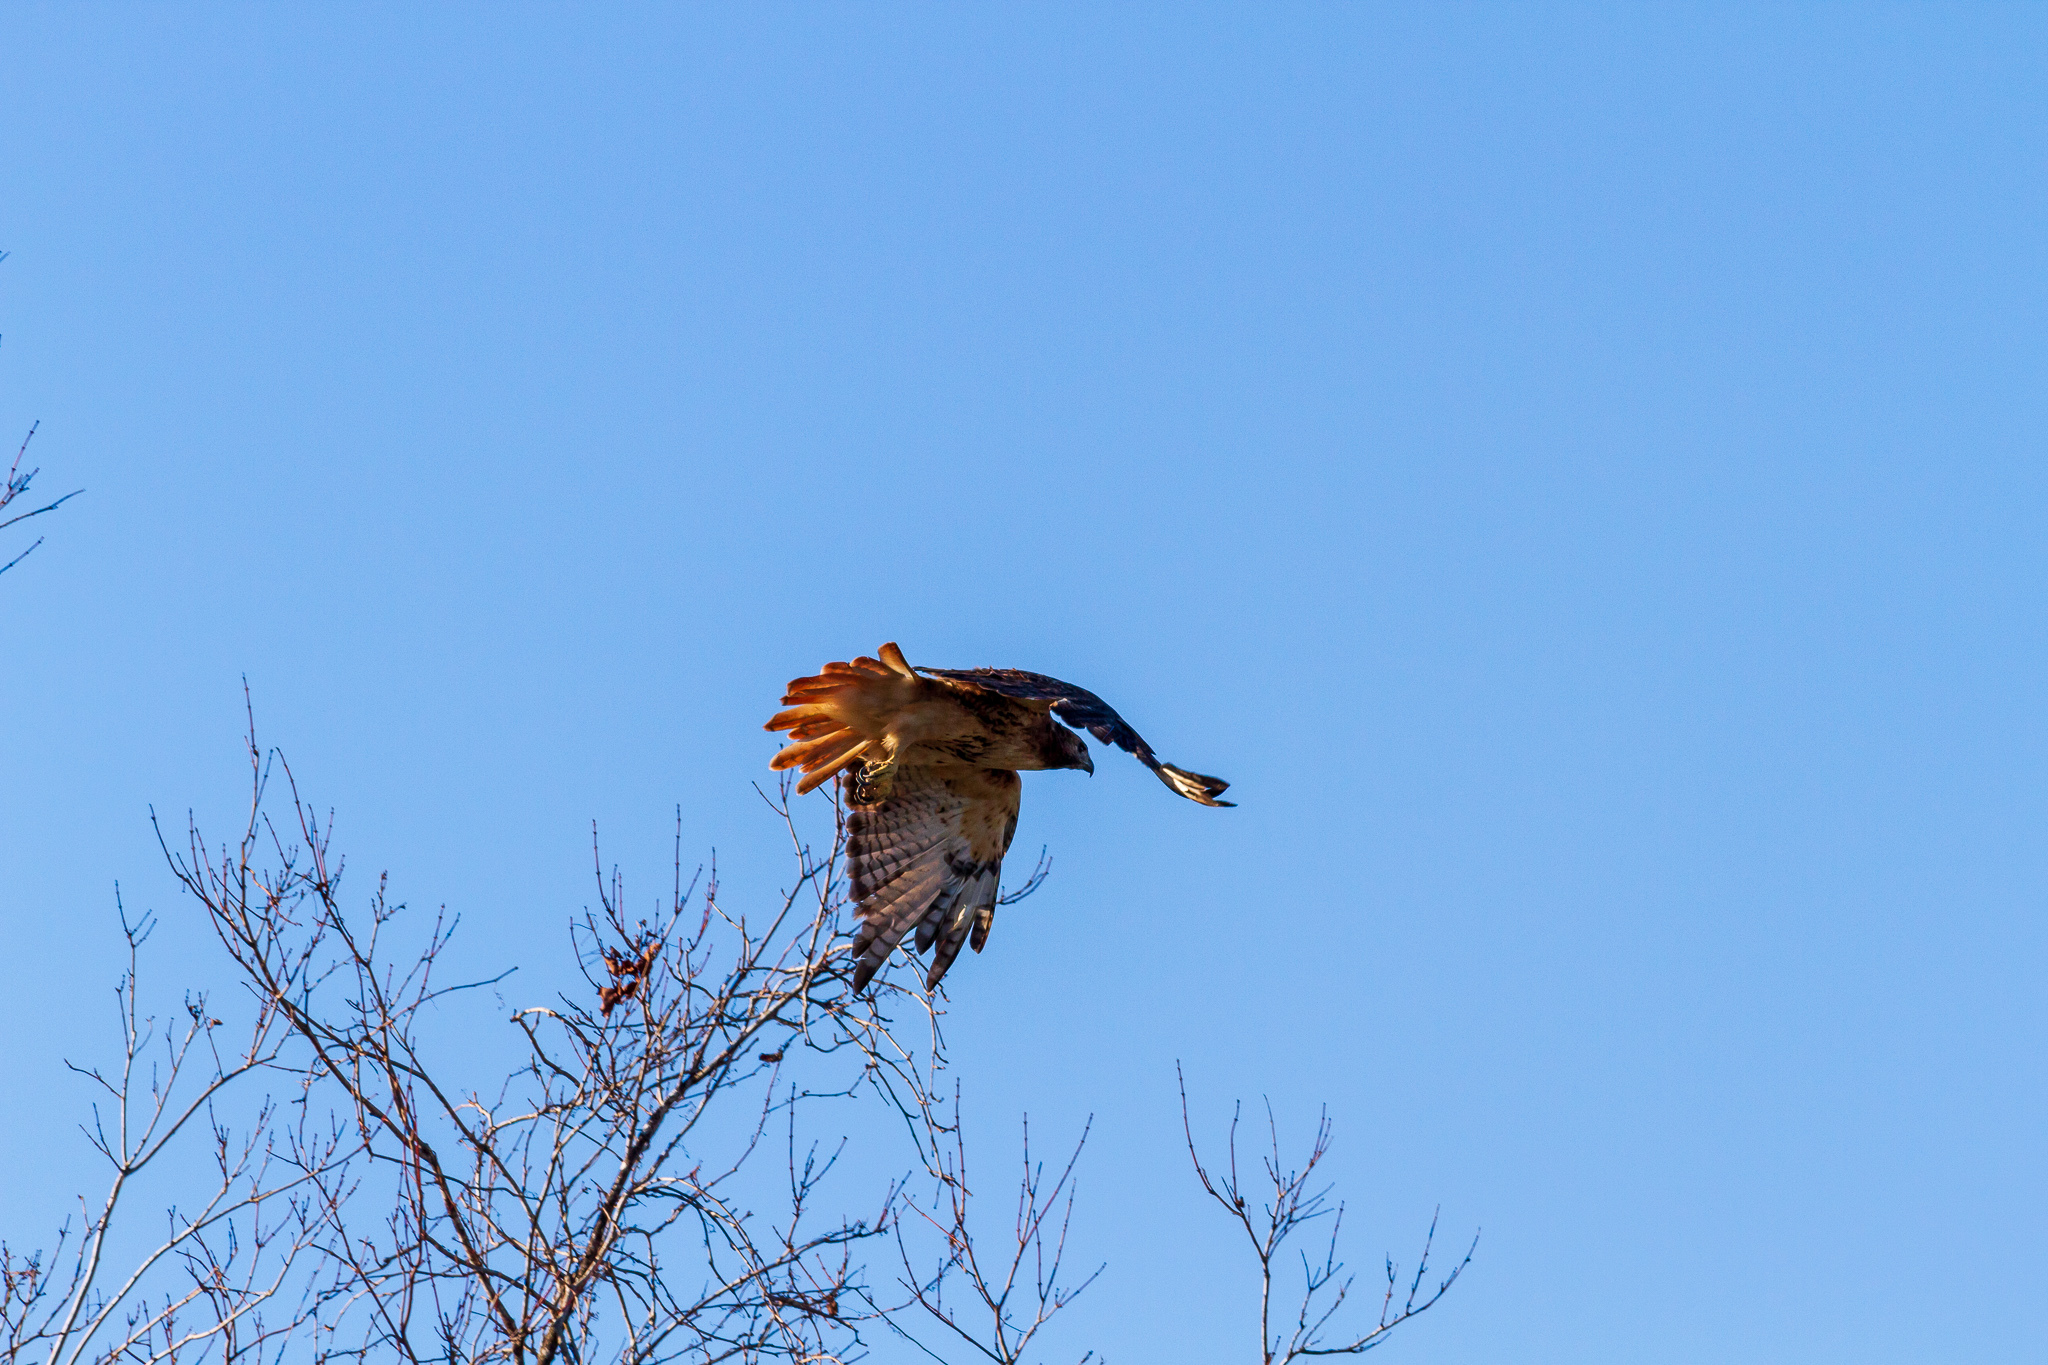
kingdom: Animalia
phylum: Chordata
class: Aves
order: Accipitriformes
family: Accipitridae
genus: Buteo
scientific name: Buteo jamaicensis
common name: Red-tailed hawk
